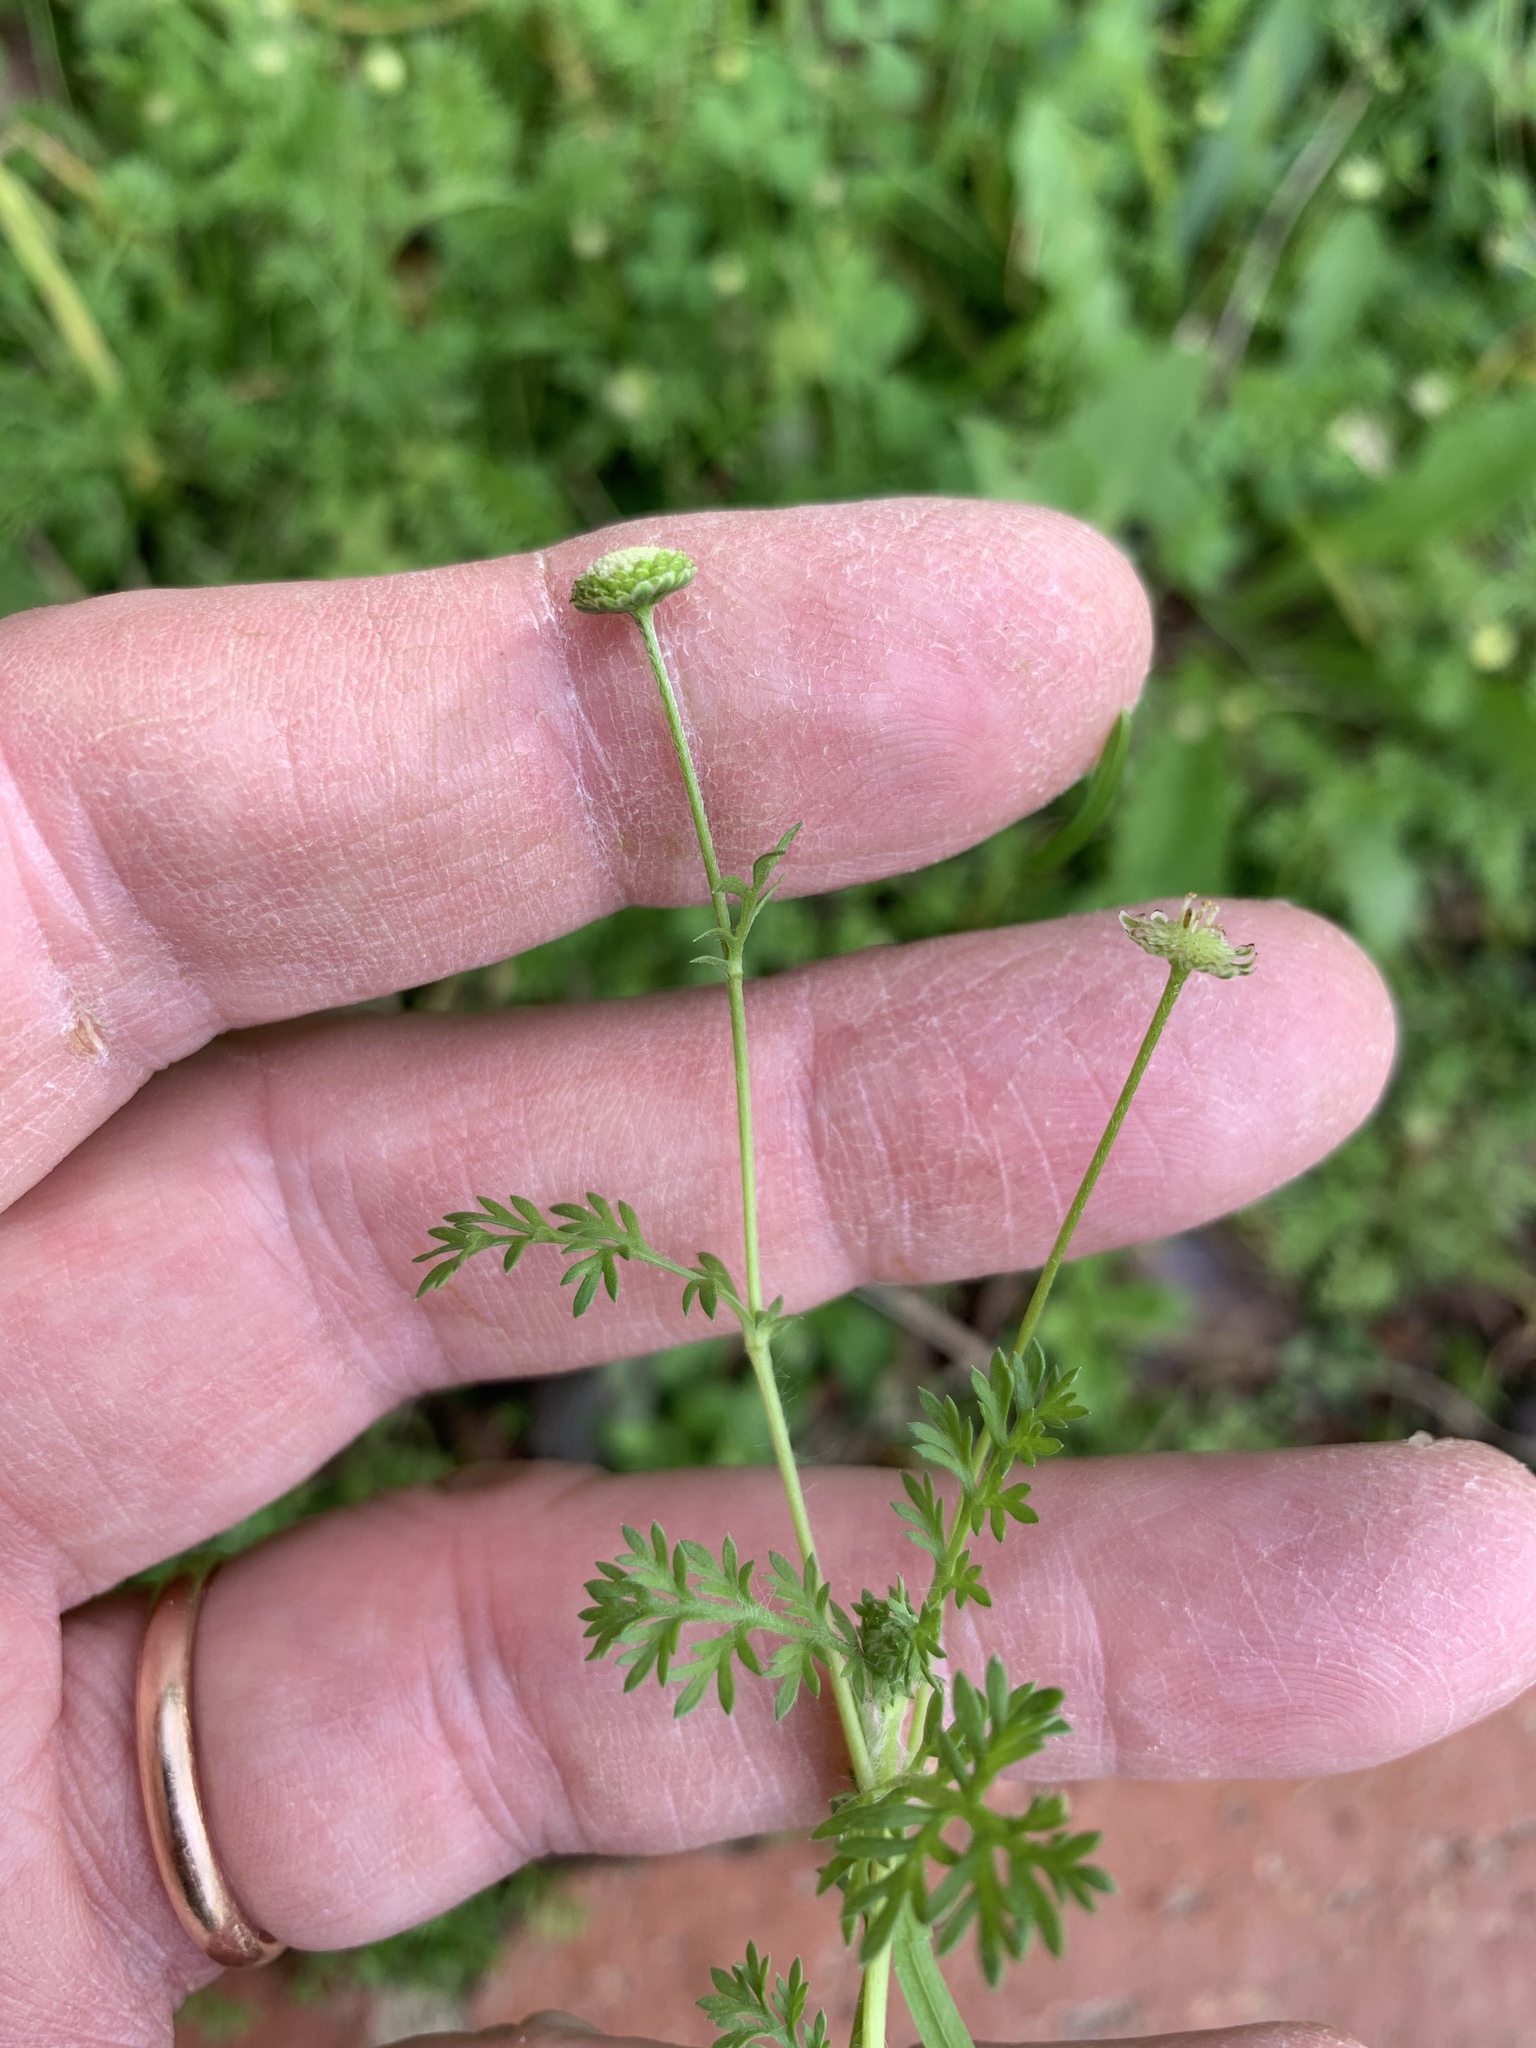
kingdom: Plantae
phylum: Tracheophyta
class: Magnoliopsida
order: Asterales
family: Asteraceae
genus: Cotula
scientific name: Cotula australis
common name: Australian waterbuttons
